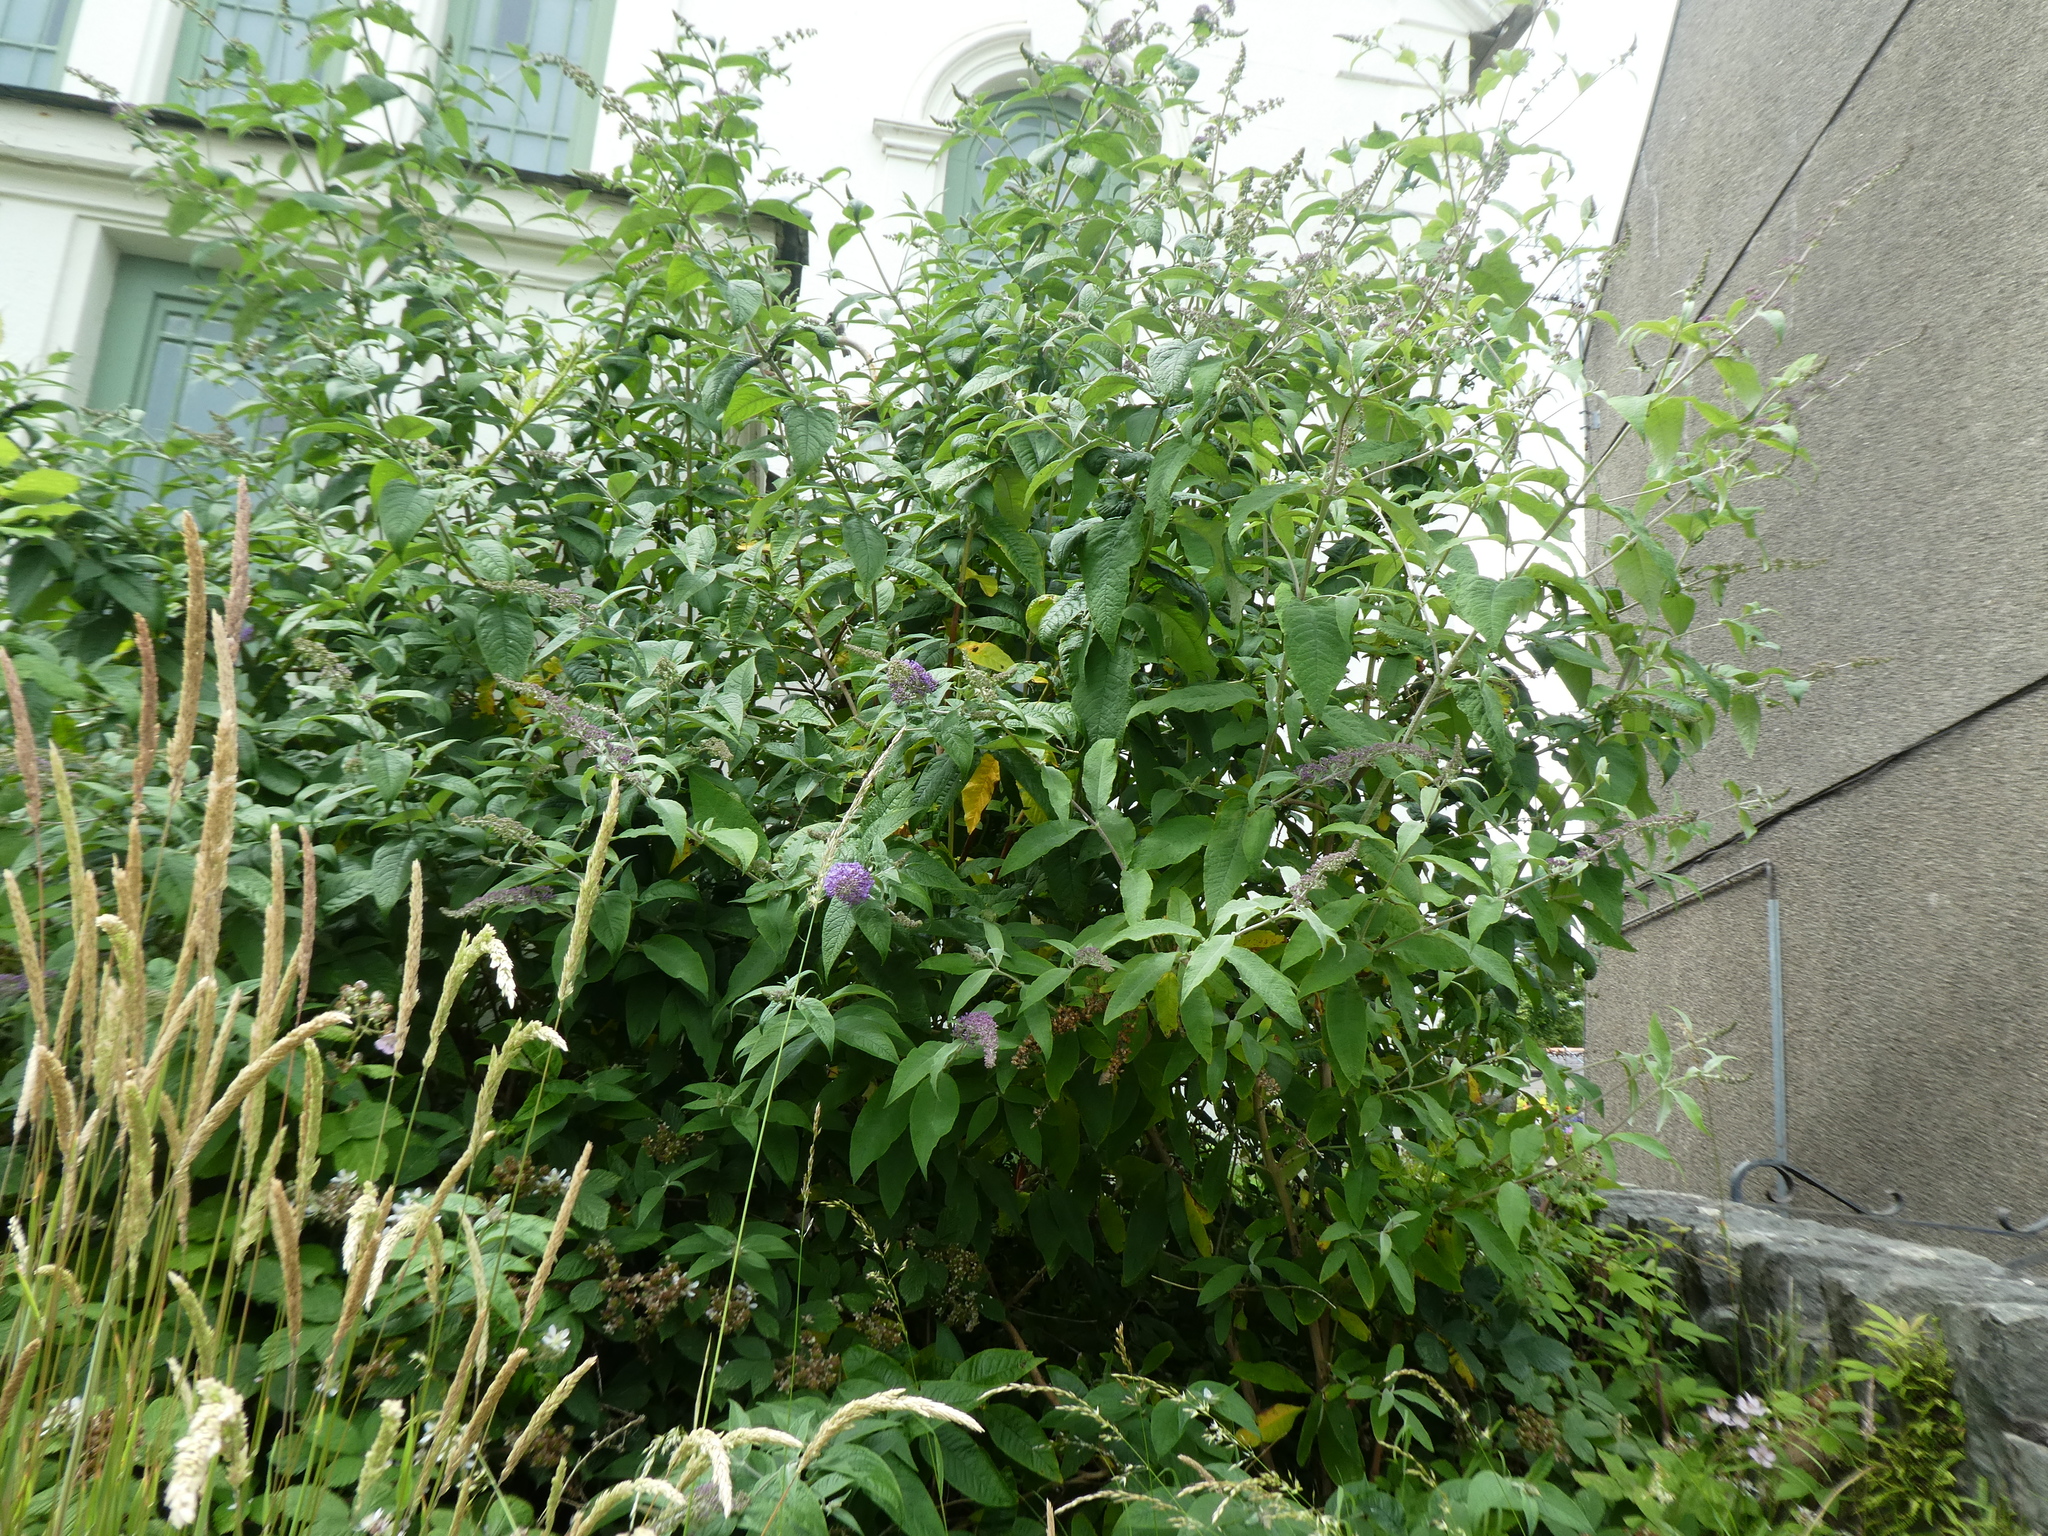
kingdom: Plantae
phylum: Tracheophyta
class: Magnoliopsida
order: Lamiales
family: Scrophulariaceae
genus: Buddleja
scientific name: Buddleja davidii
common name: Butterfly-bush
